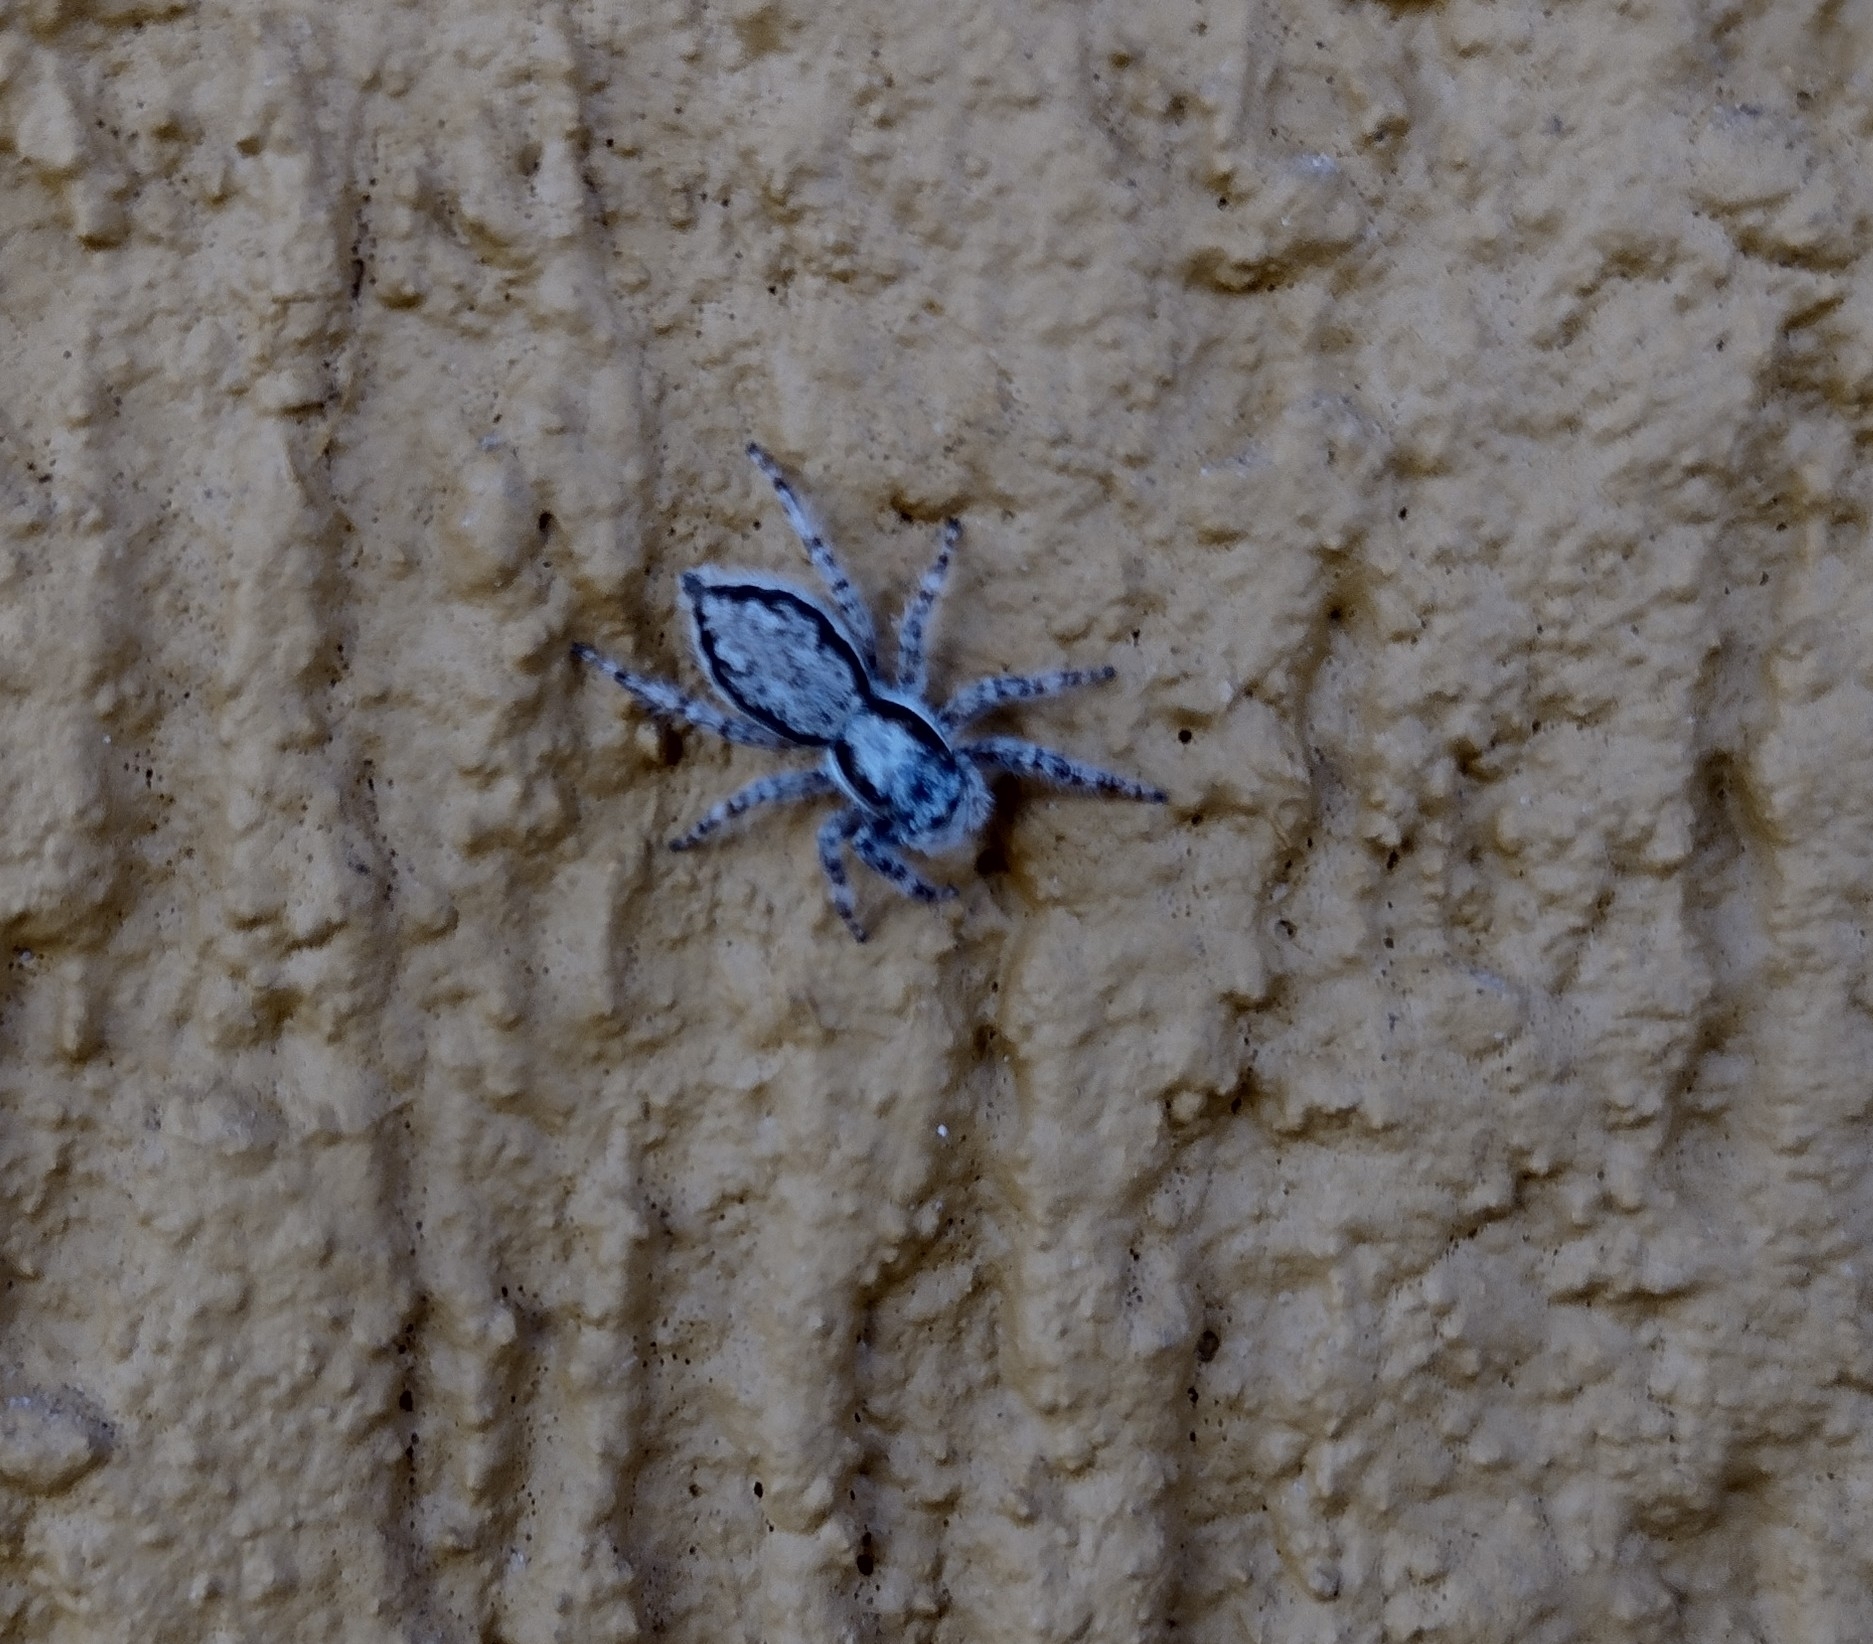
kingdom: Animalia
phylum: Arthropoda
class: Arachnida
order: Araneae
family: Salticidae
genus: Menemerus
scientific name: Menemerus bivittatus
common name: Gray wall jumper
